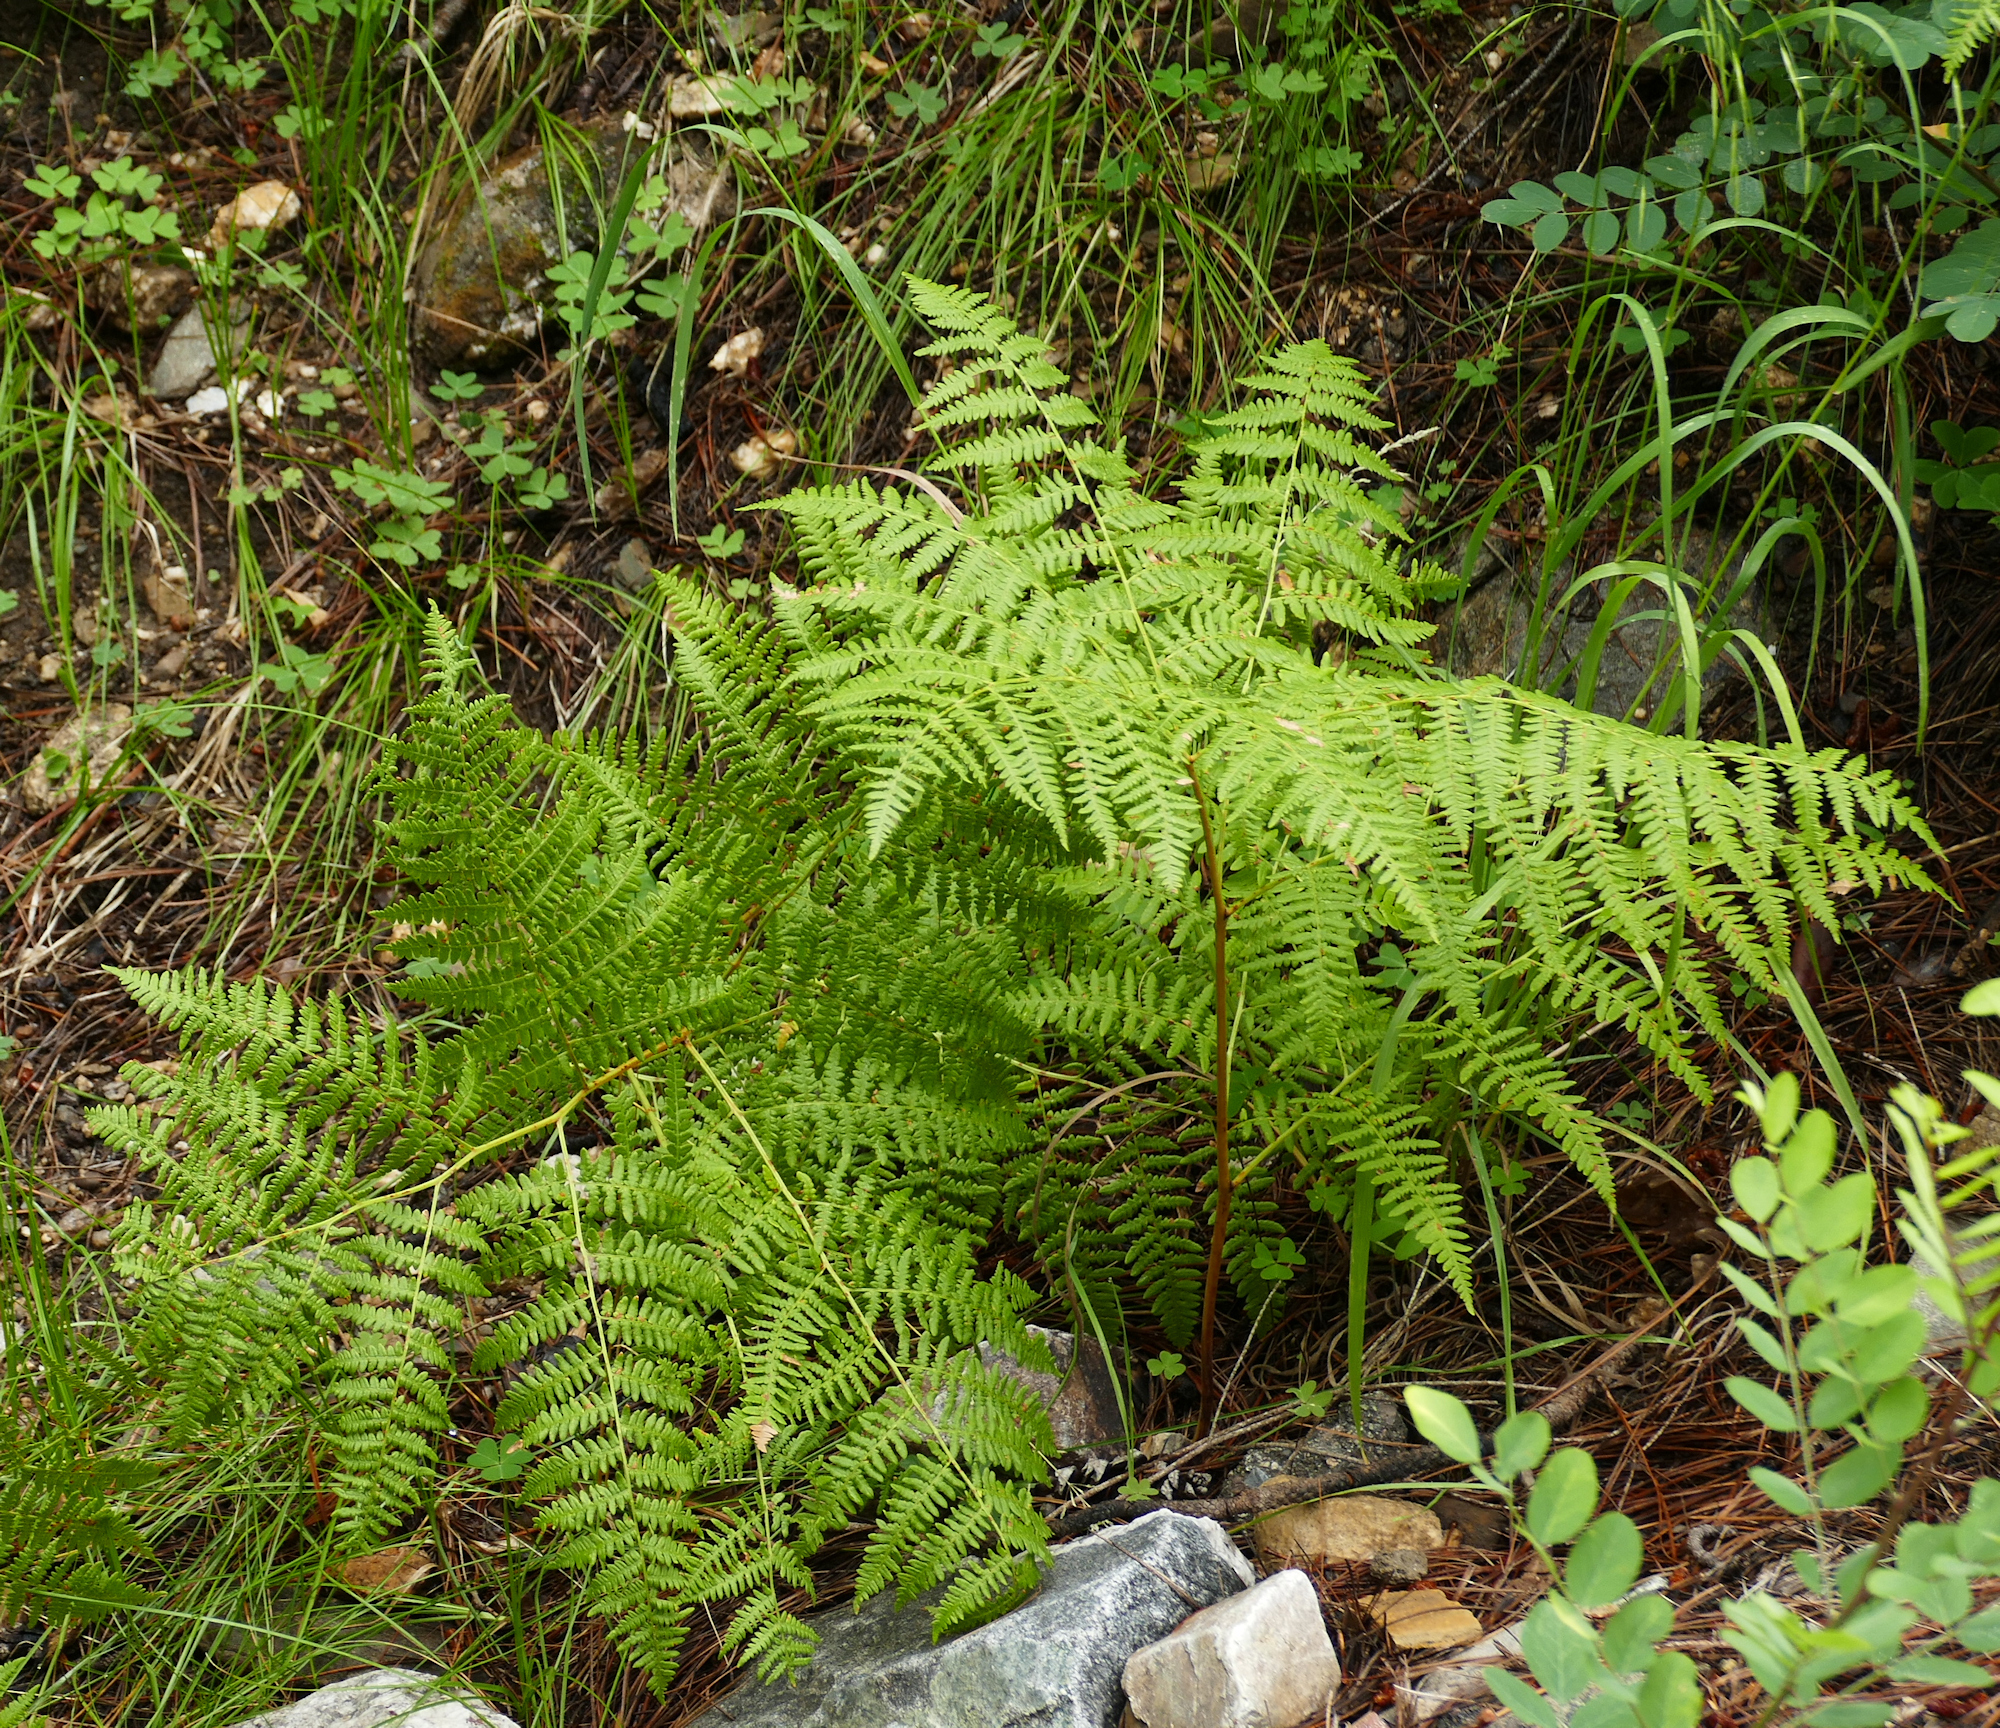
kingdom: Plantae
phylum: Tracheophyta
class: Polypodiopsida
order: Polypodiales
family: Dennstaedtiaceae
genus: Pteridium
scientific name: Pteridium aquilinum
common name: Bracken
